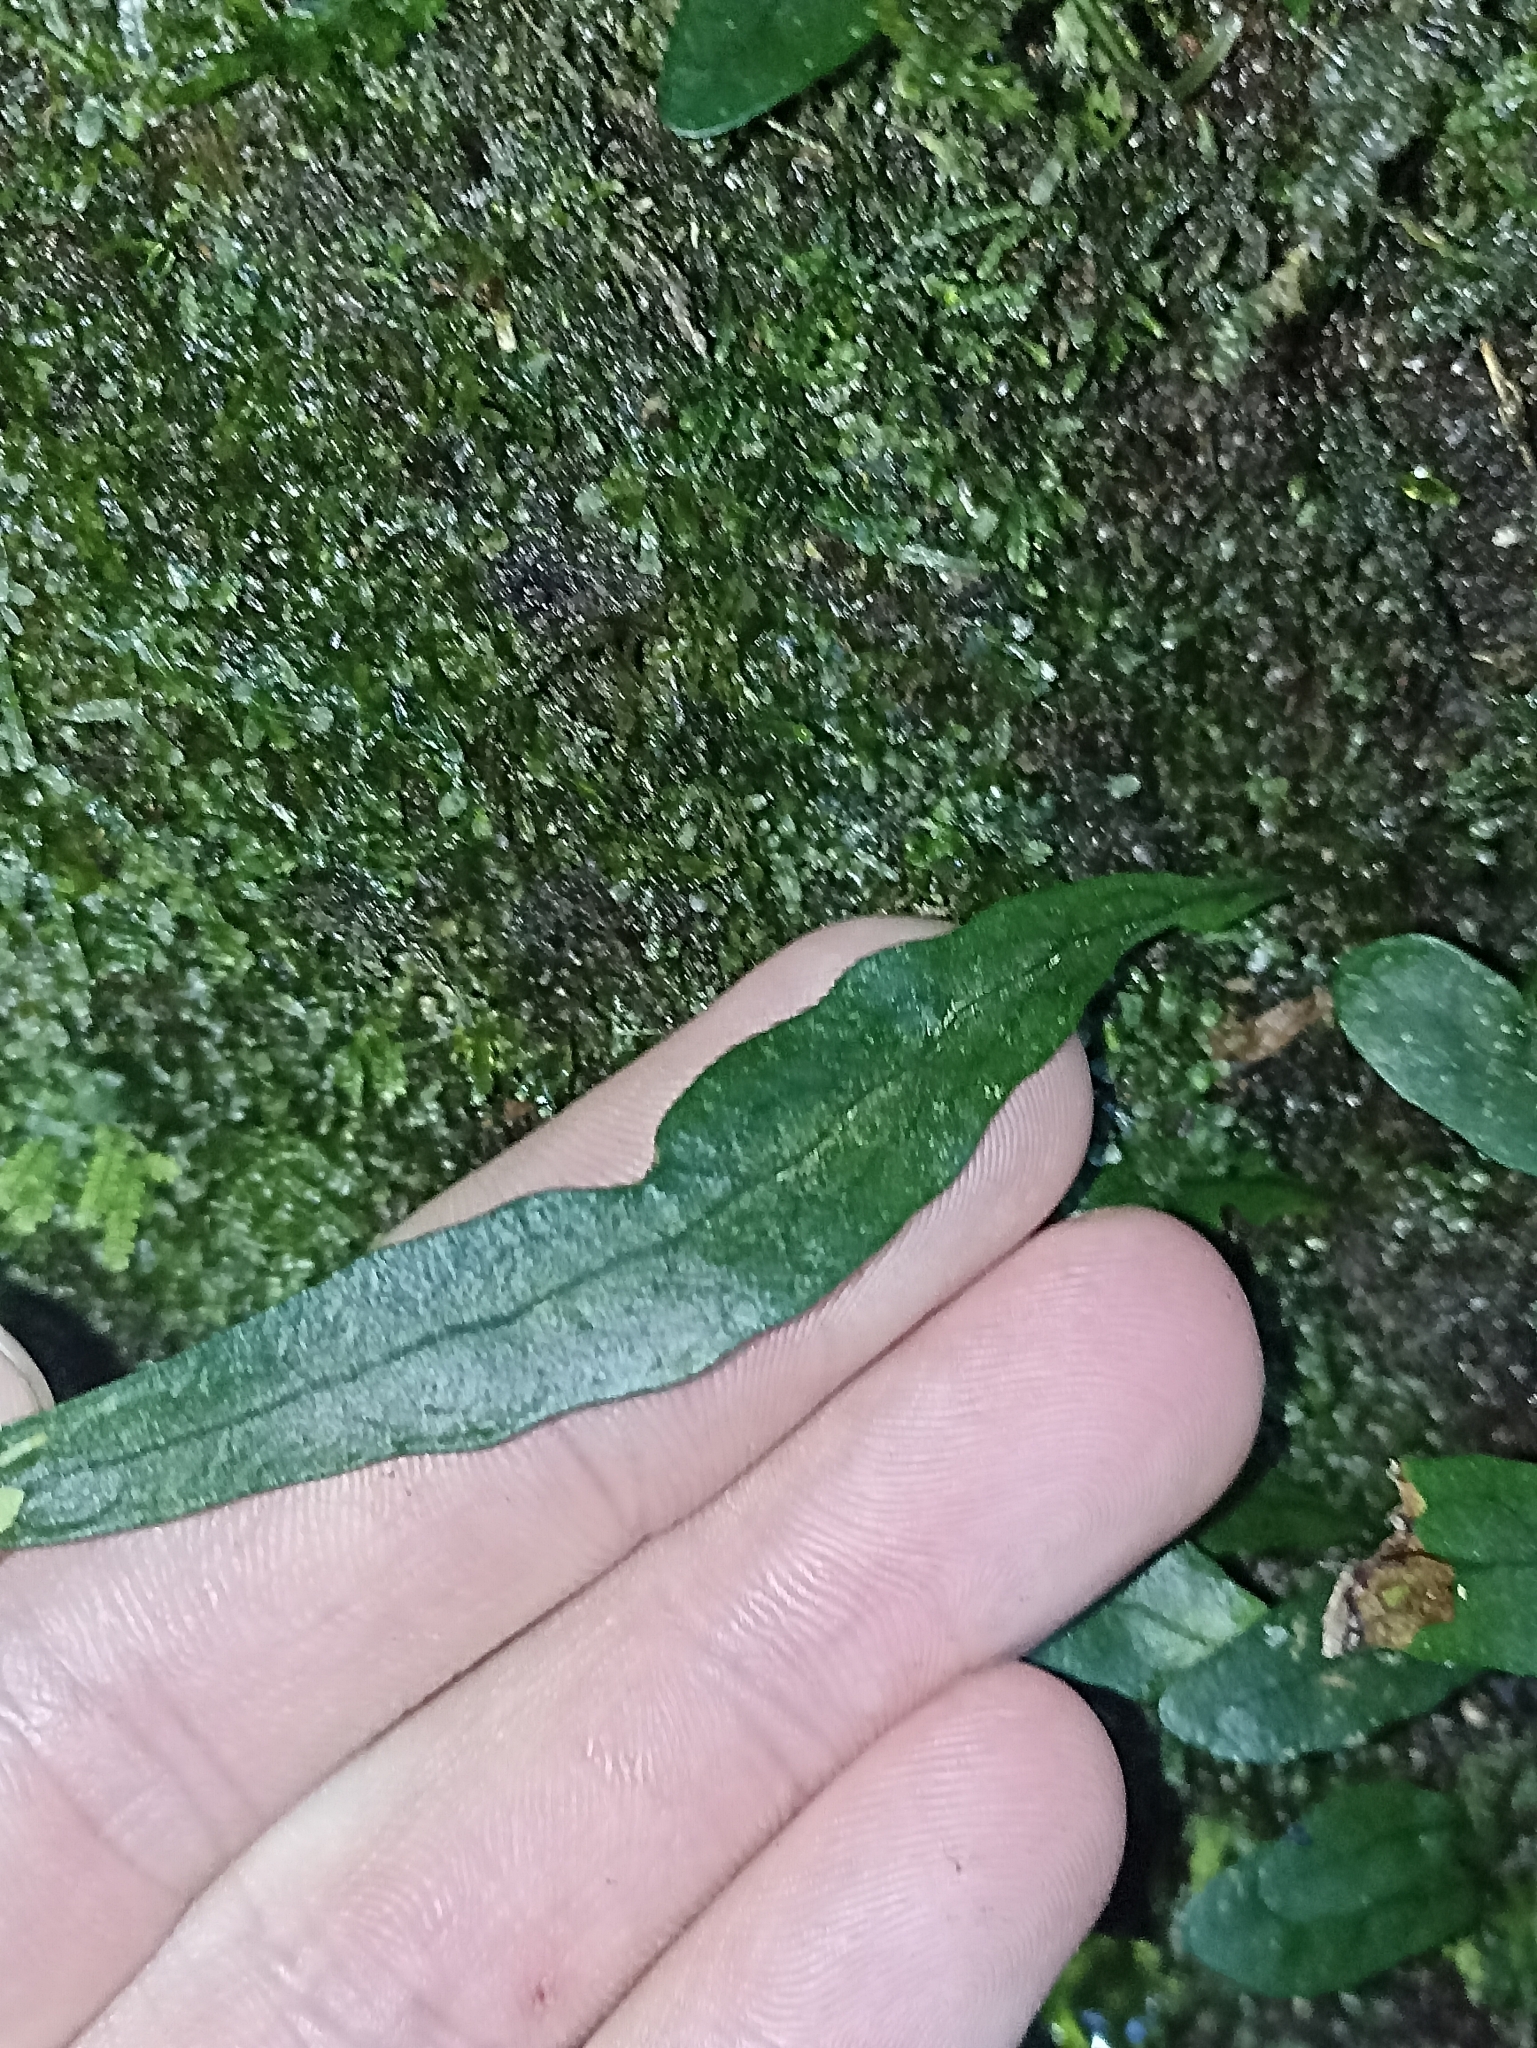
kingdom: Plantae
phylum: Tracheophyta
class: Polypodiopsida
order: Polypodiales
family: Polypodiaceae
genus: Lecanopteris
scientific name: Lecanopteris scandens
